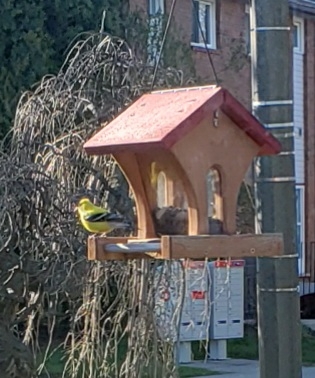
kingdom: Animalia
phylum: Chordata
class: Aves
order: Passeriformes
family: Fringillidae
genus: Spinus
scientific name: Spinus tristis
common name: American goldfinch
